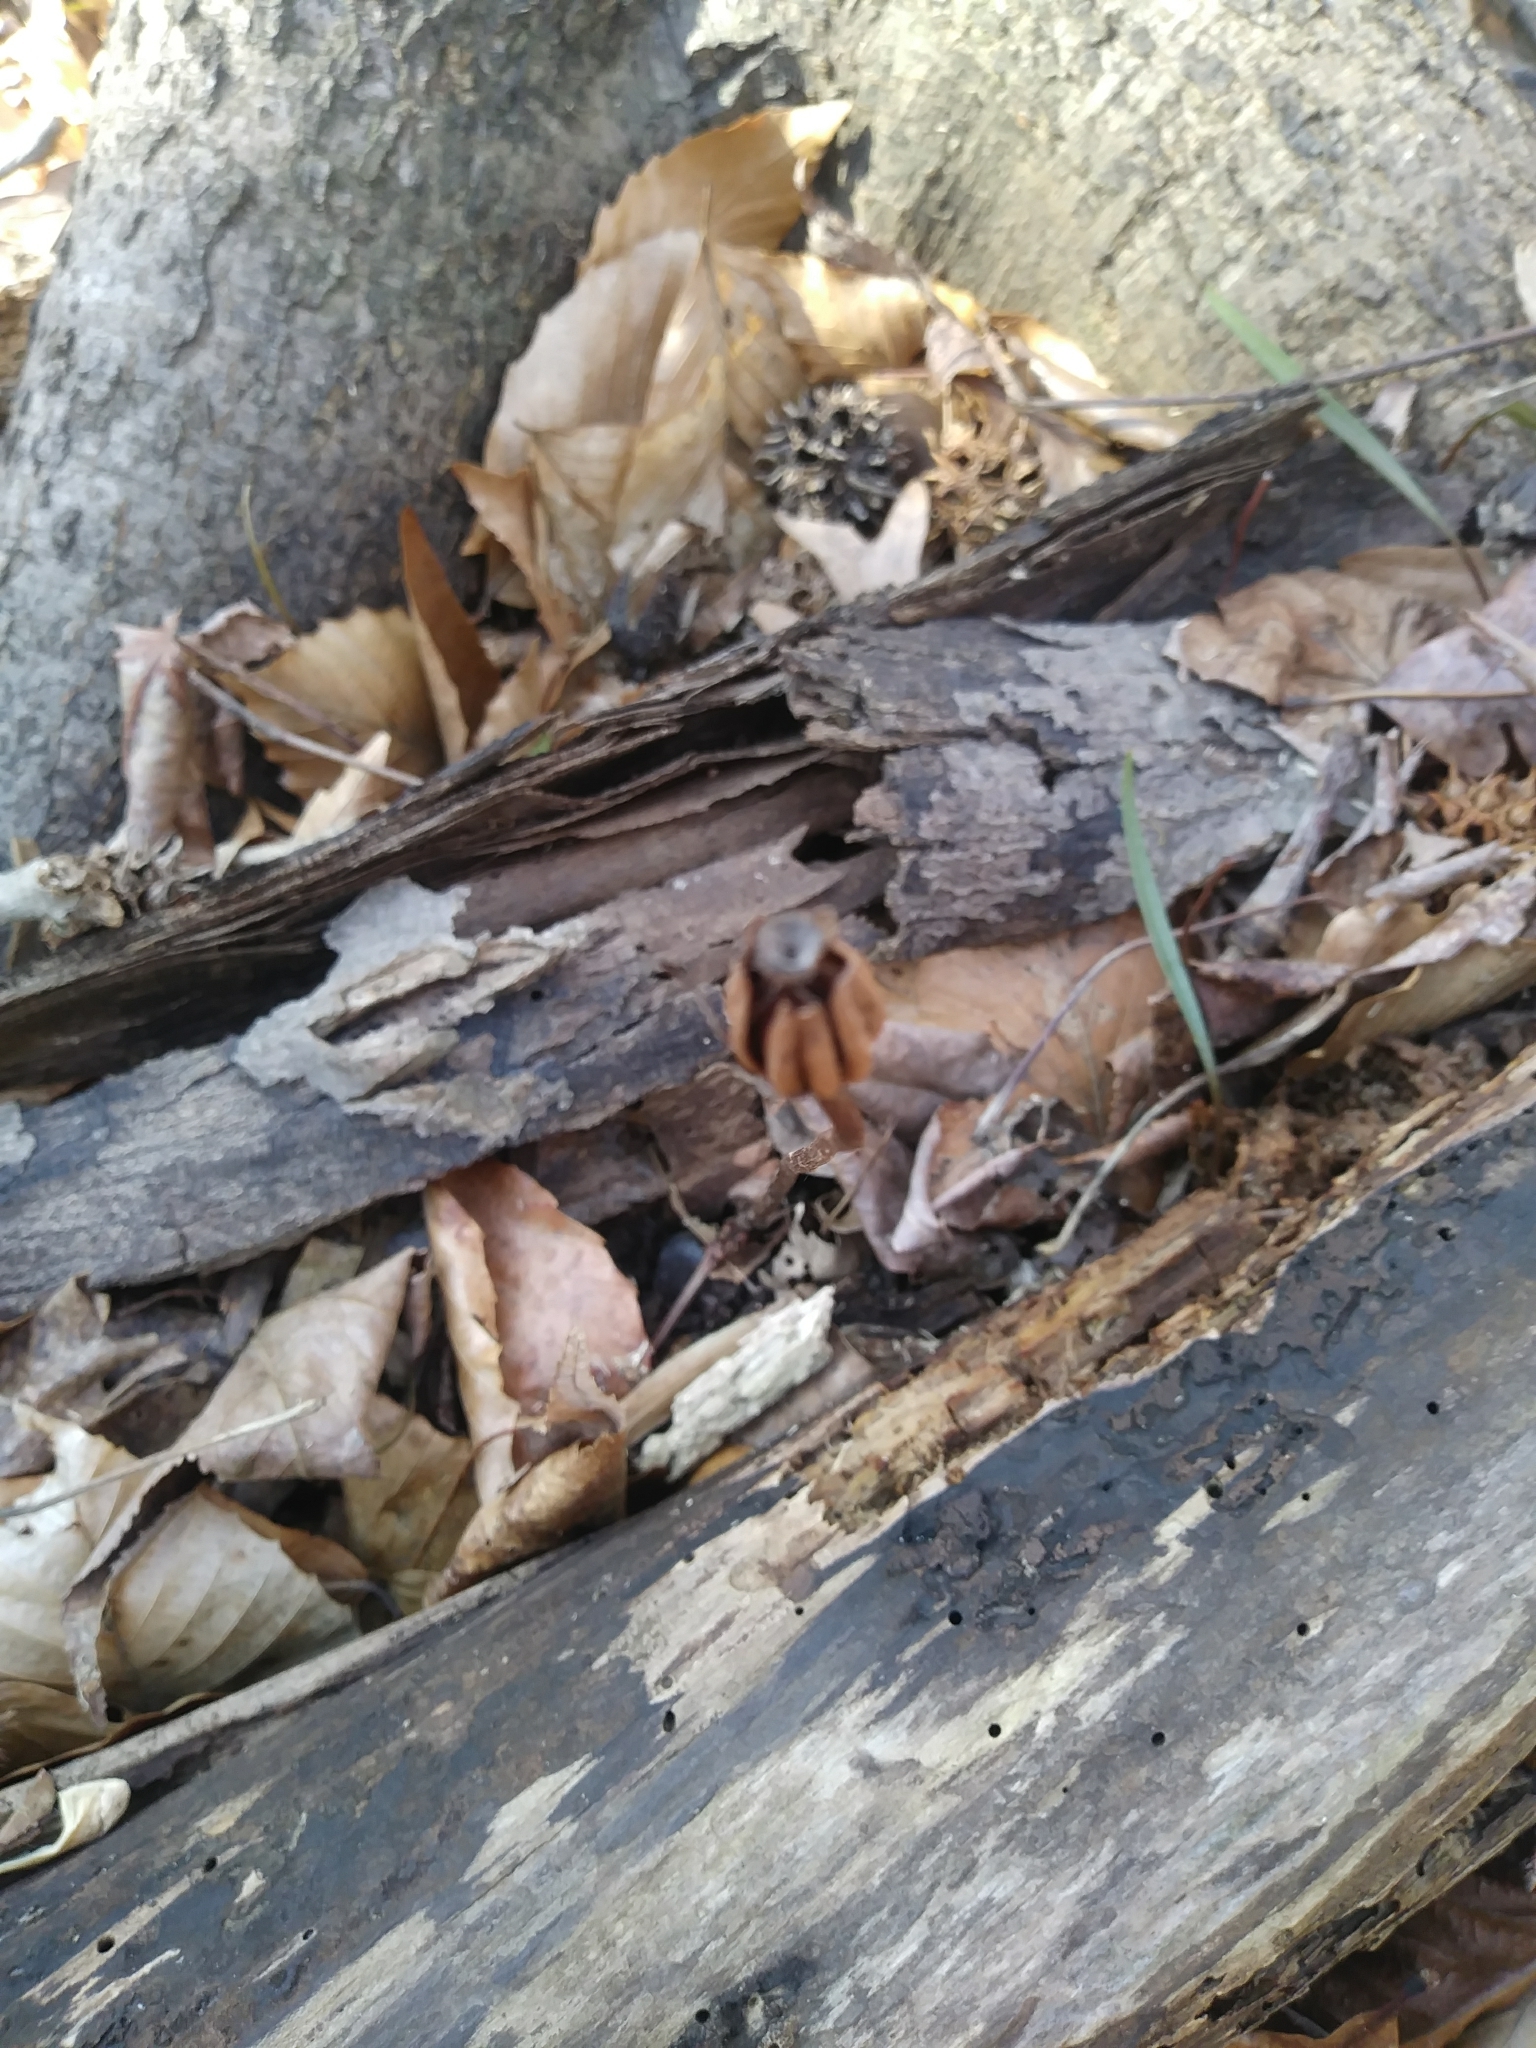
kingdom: Plantae
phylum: Tracheophyta
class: Magnoliopsida
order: Ericales
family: Ericaceae
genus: Monotropa
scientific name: Monotropa uniflora
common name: Convulsion root
